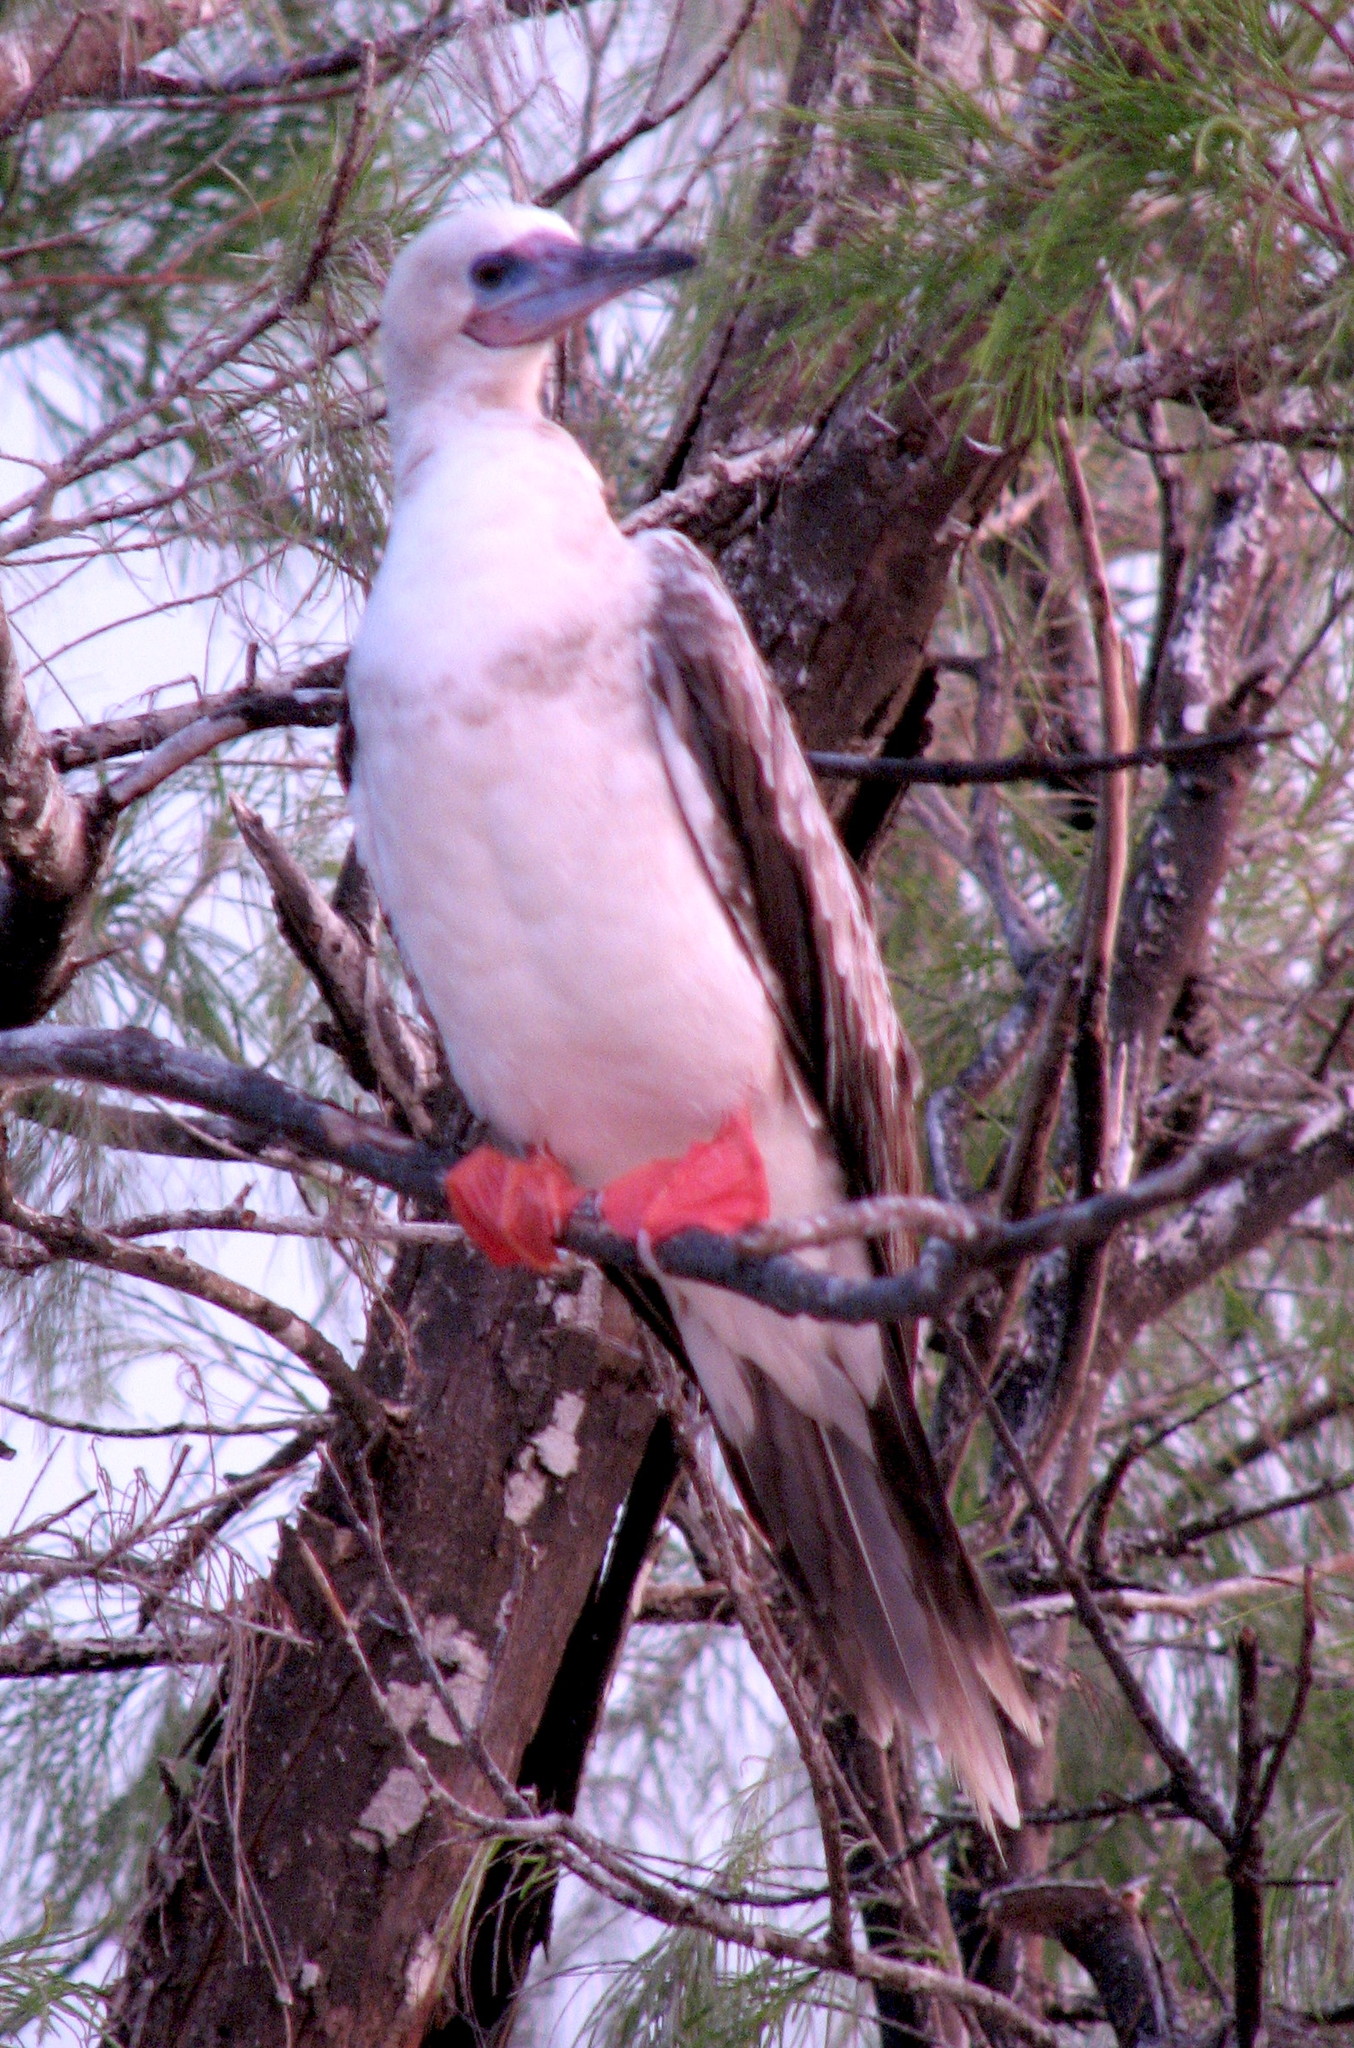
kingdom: Animalia
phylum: Chordata
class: Aves
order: Suliformes
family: Sulidae
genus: Sula
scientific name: Sula sula
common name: Red-footed booby
